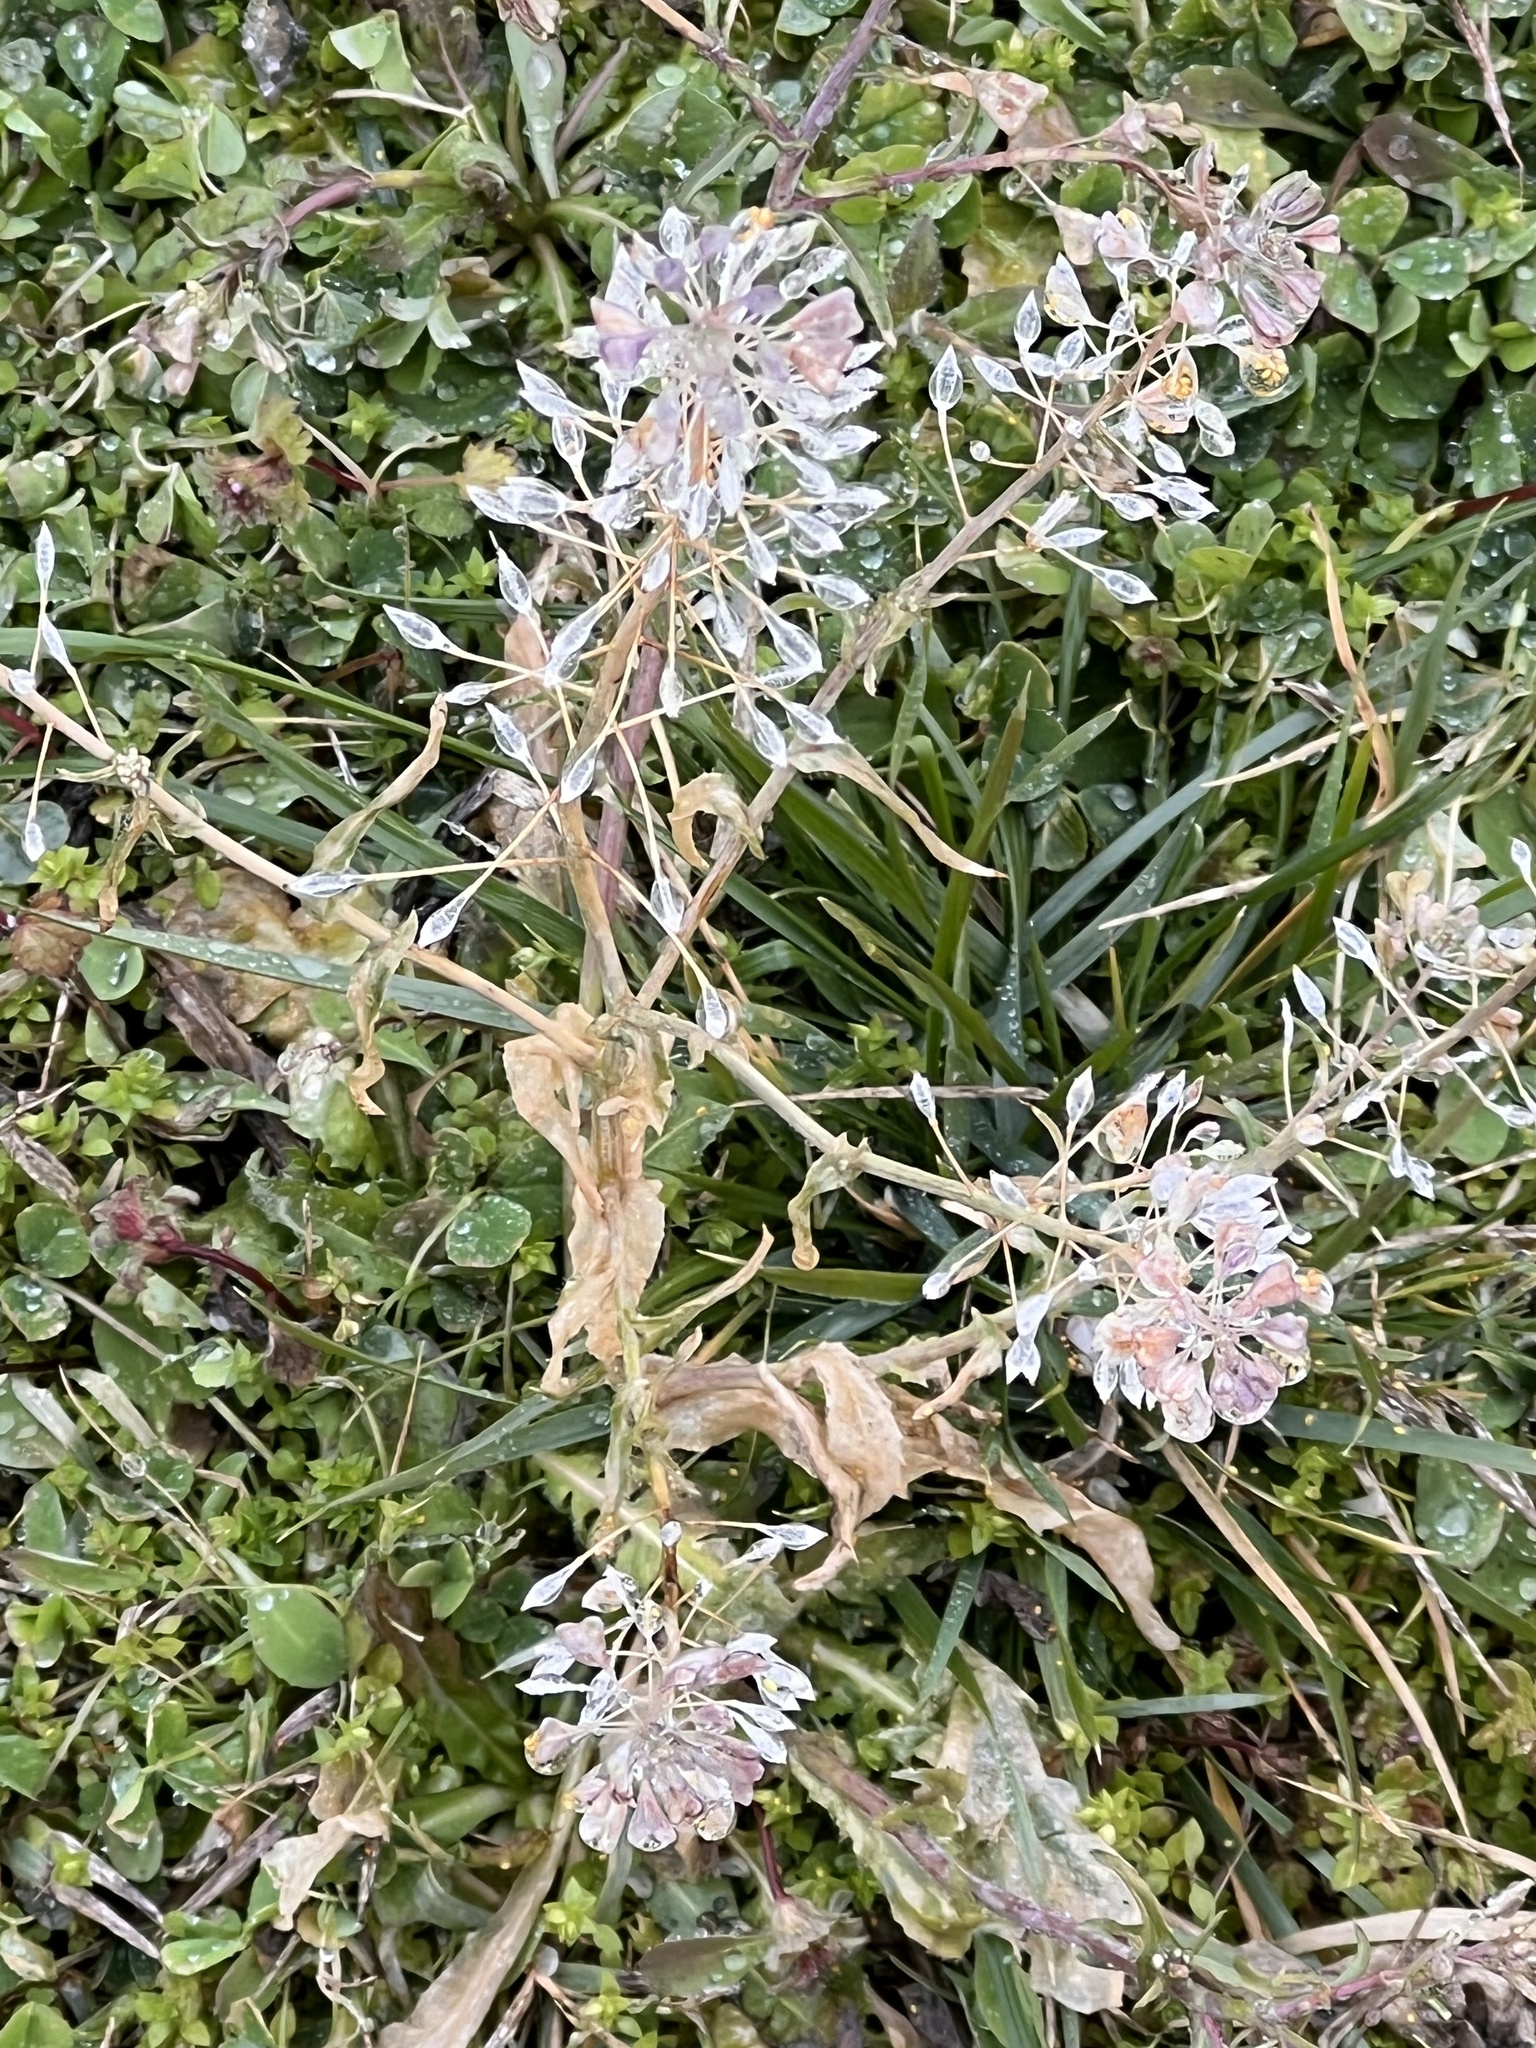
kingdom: Plantae
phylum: Tracheophyta
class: Magnoliopsida
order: Brassicales
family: Brassicaceae
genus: Capsella
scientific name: Capsella bursa-pastoris
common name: Shepherd's purse
